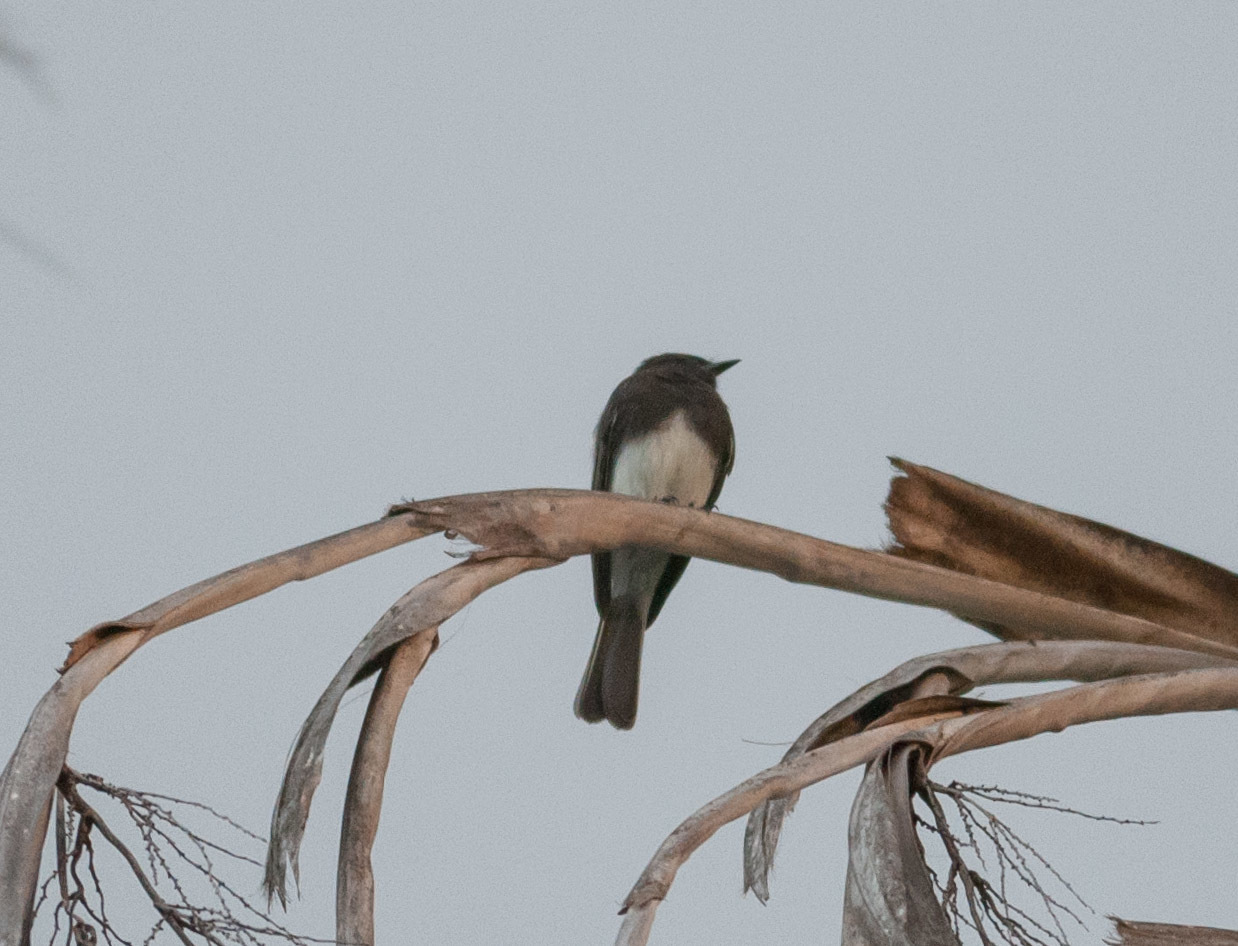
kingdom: Animalia
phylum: Chordata
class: Aves
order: Passeriformes
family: Tyrannidae
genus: Sayornis
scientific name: Sayornis nigricans
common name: Black phoebe
